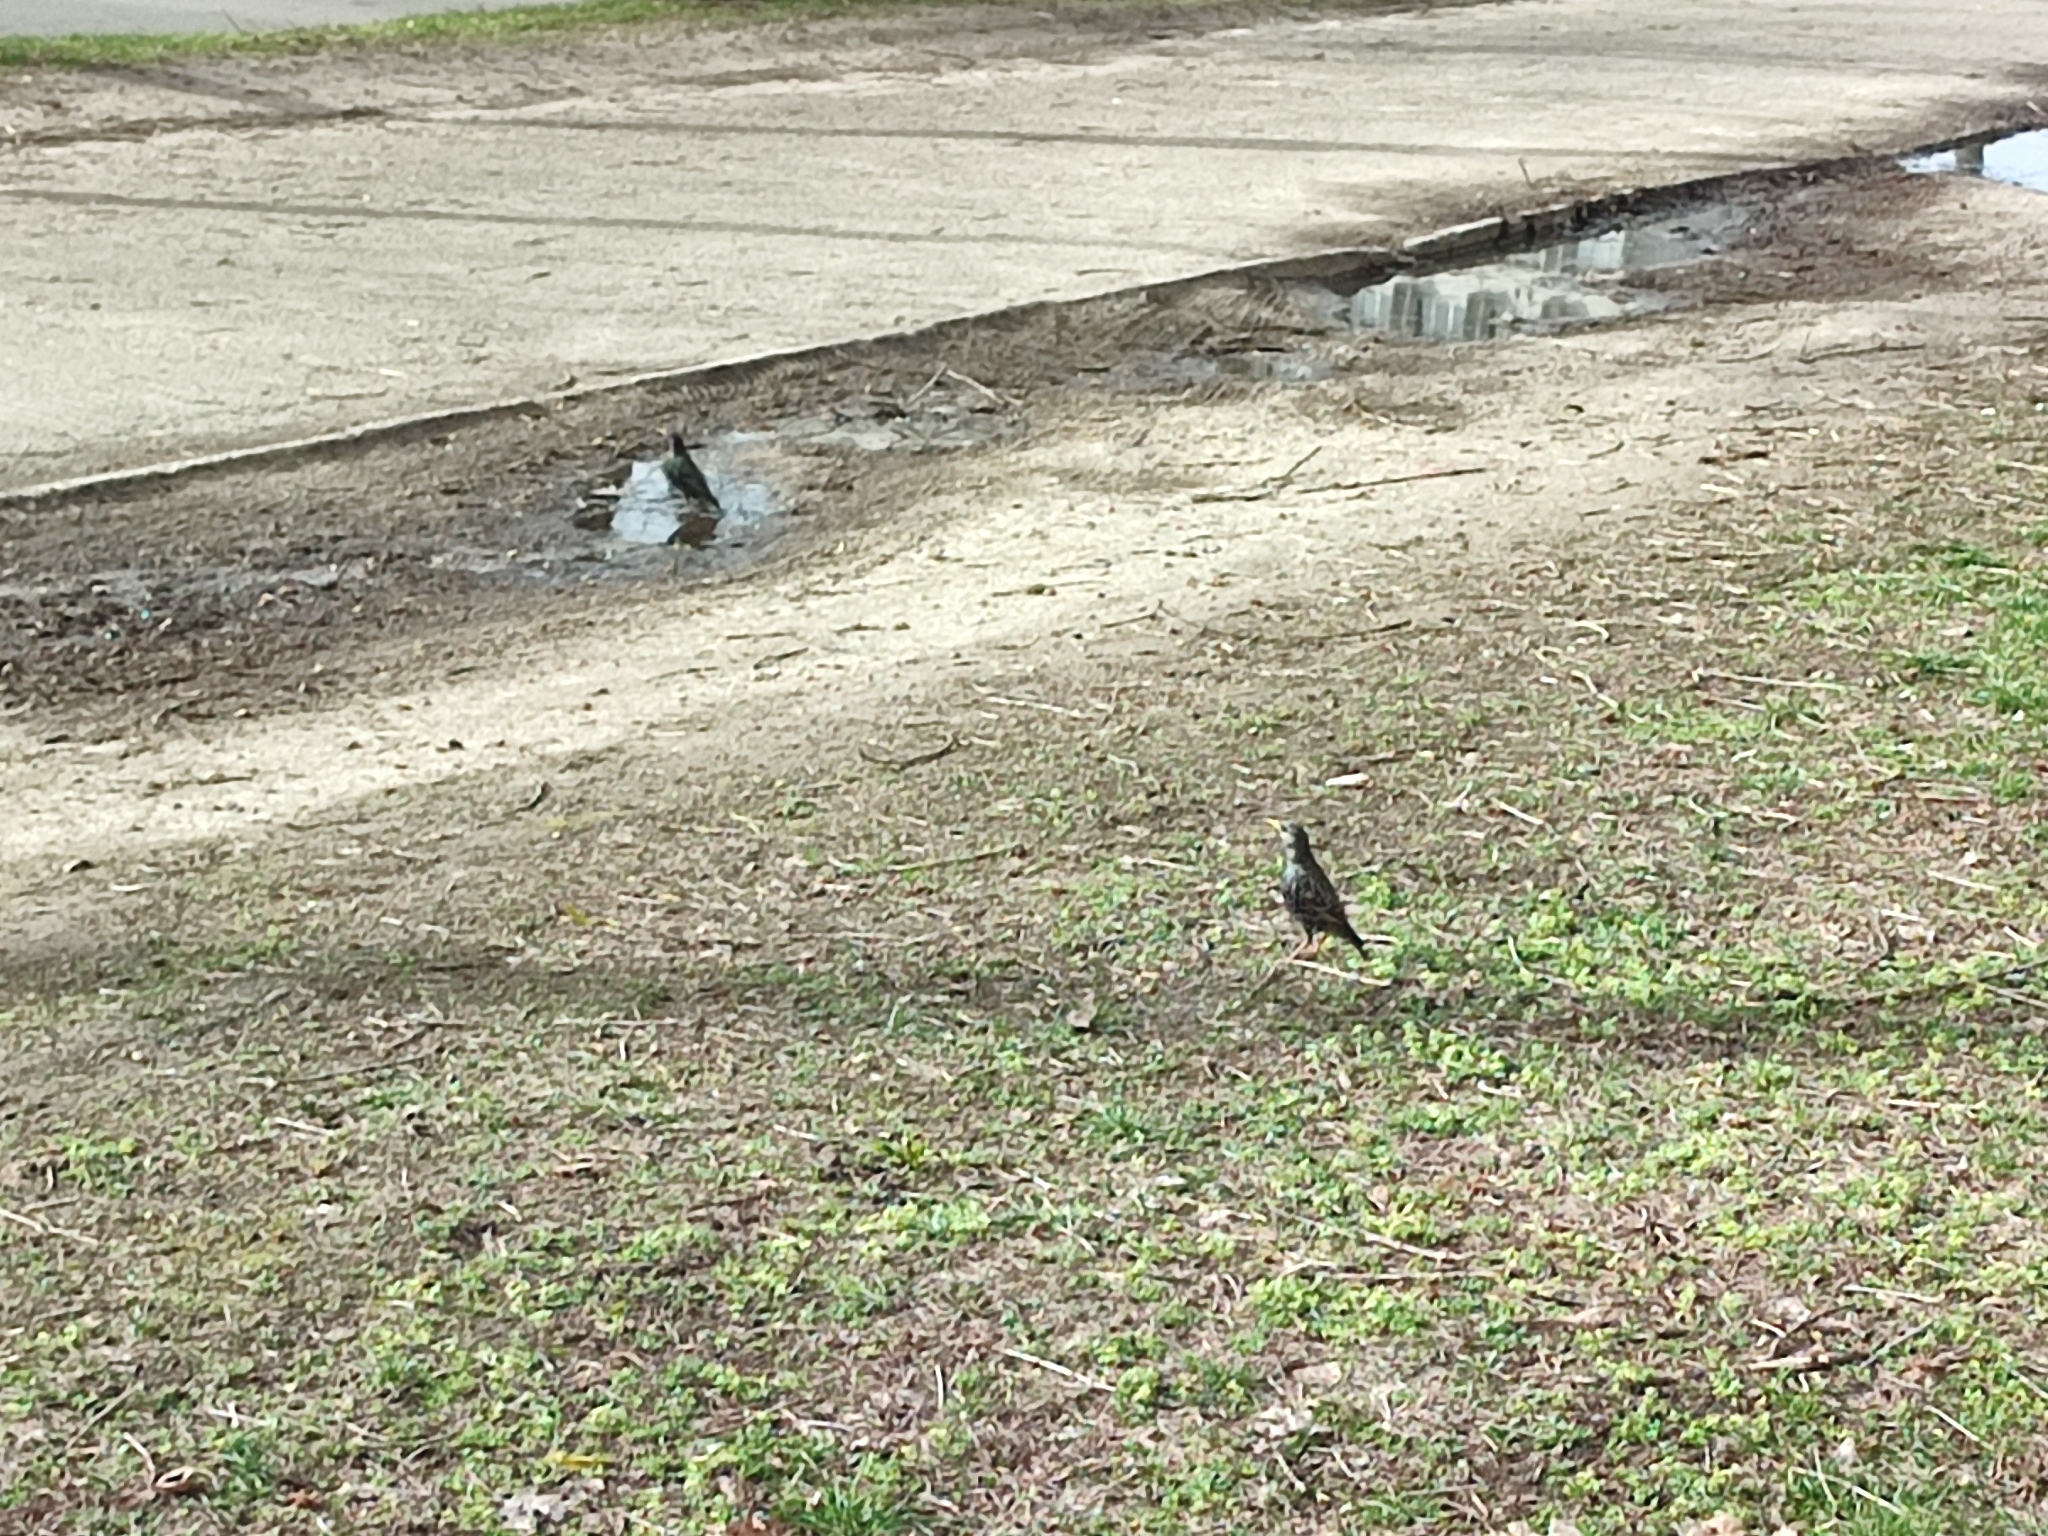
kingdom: Animalia
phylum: Chordata
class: Aves
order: Passeriformes
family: Sturnidae
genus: Sturnus
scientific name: Sturnus vulgaris
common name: Common starling
